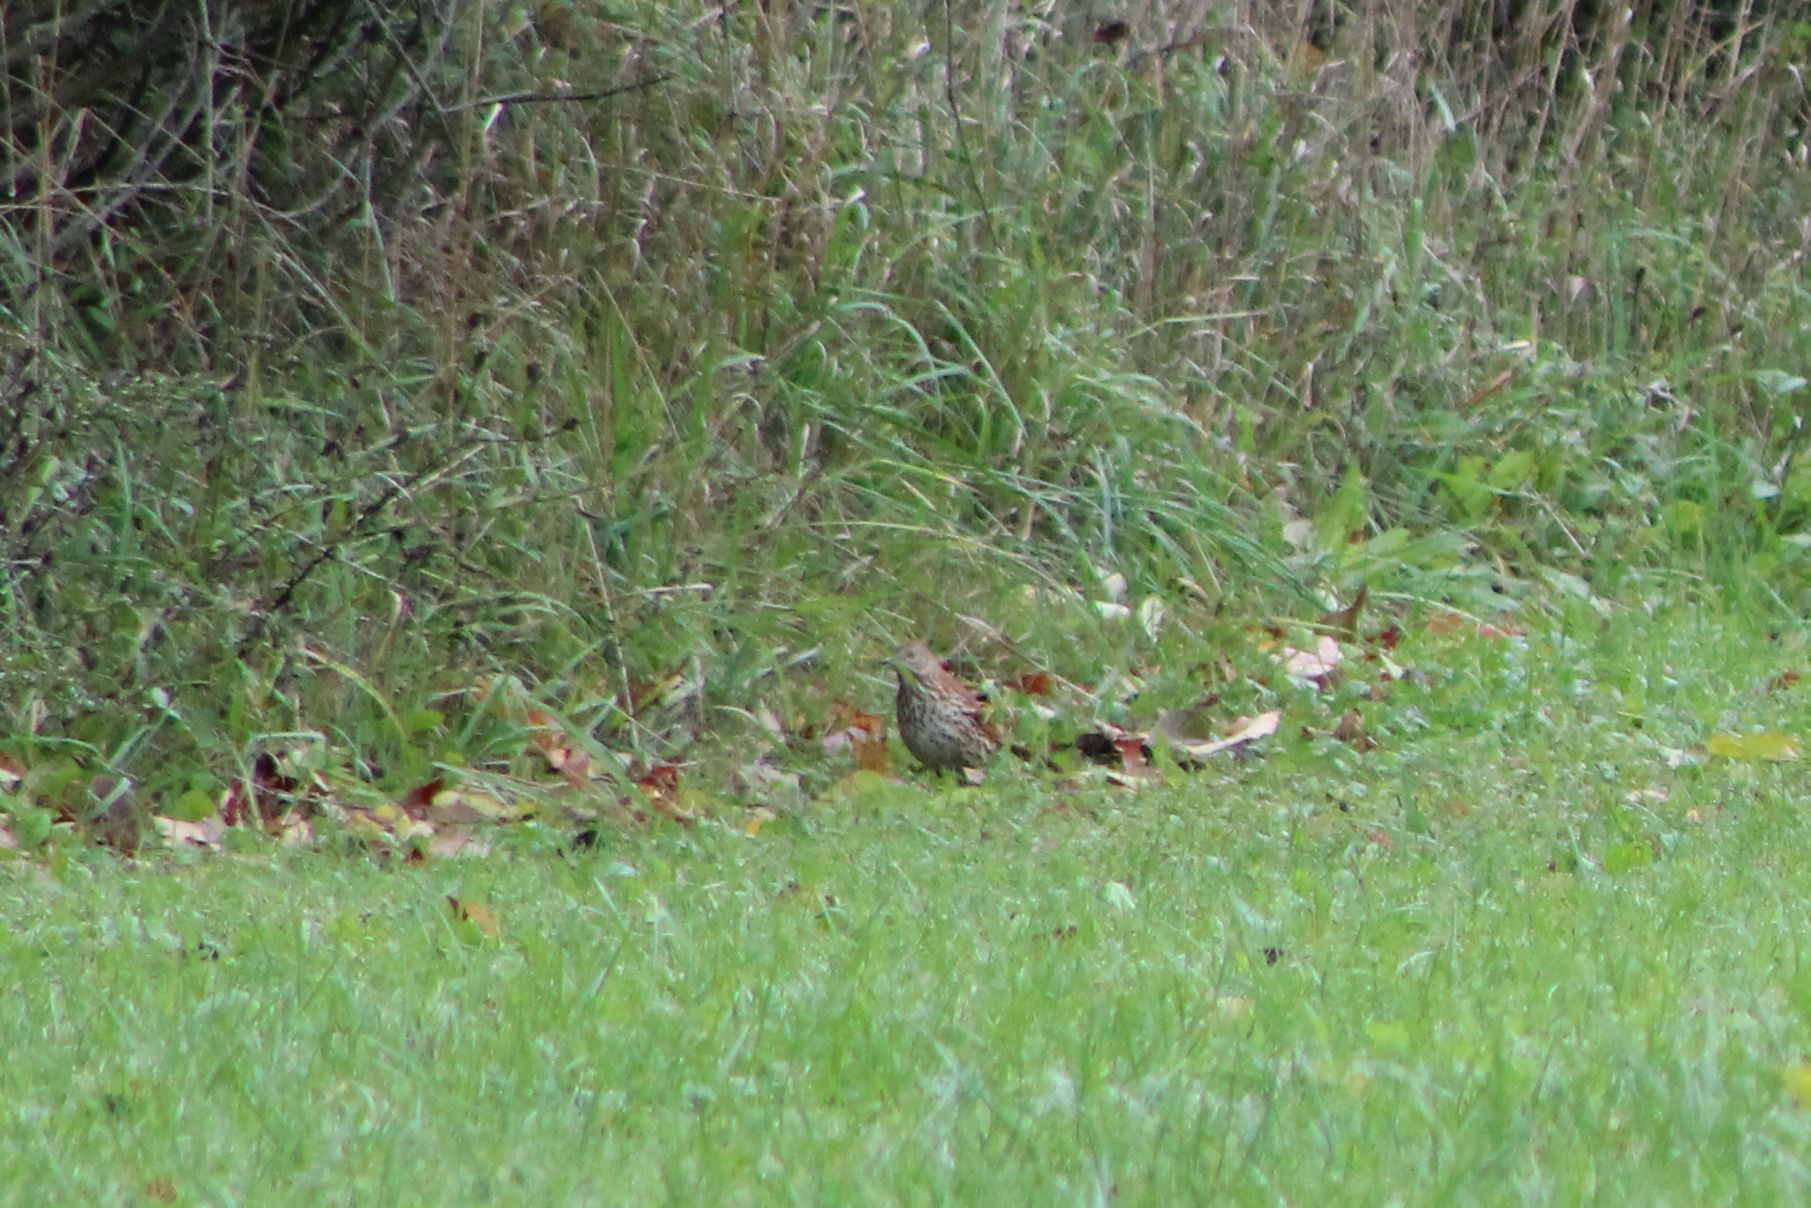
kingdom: Animalia
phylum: Chordata
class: Aves
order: Passeriformes
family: Mimidae
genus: Toxostoma
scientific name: Toxostoma rufum
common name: Brown thrasher
